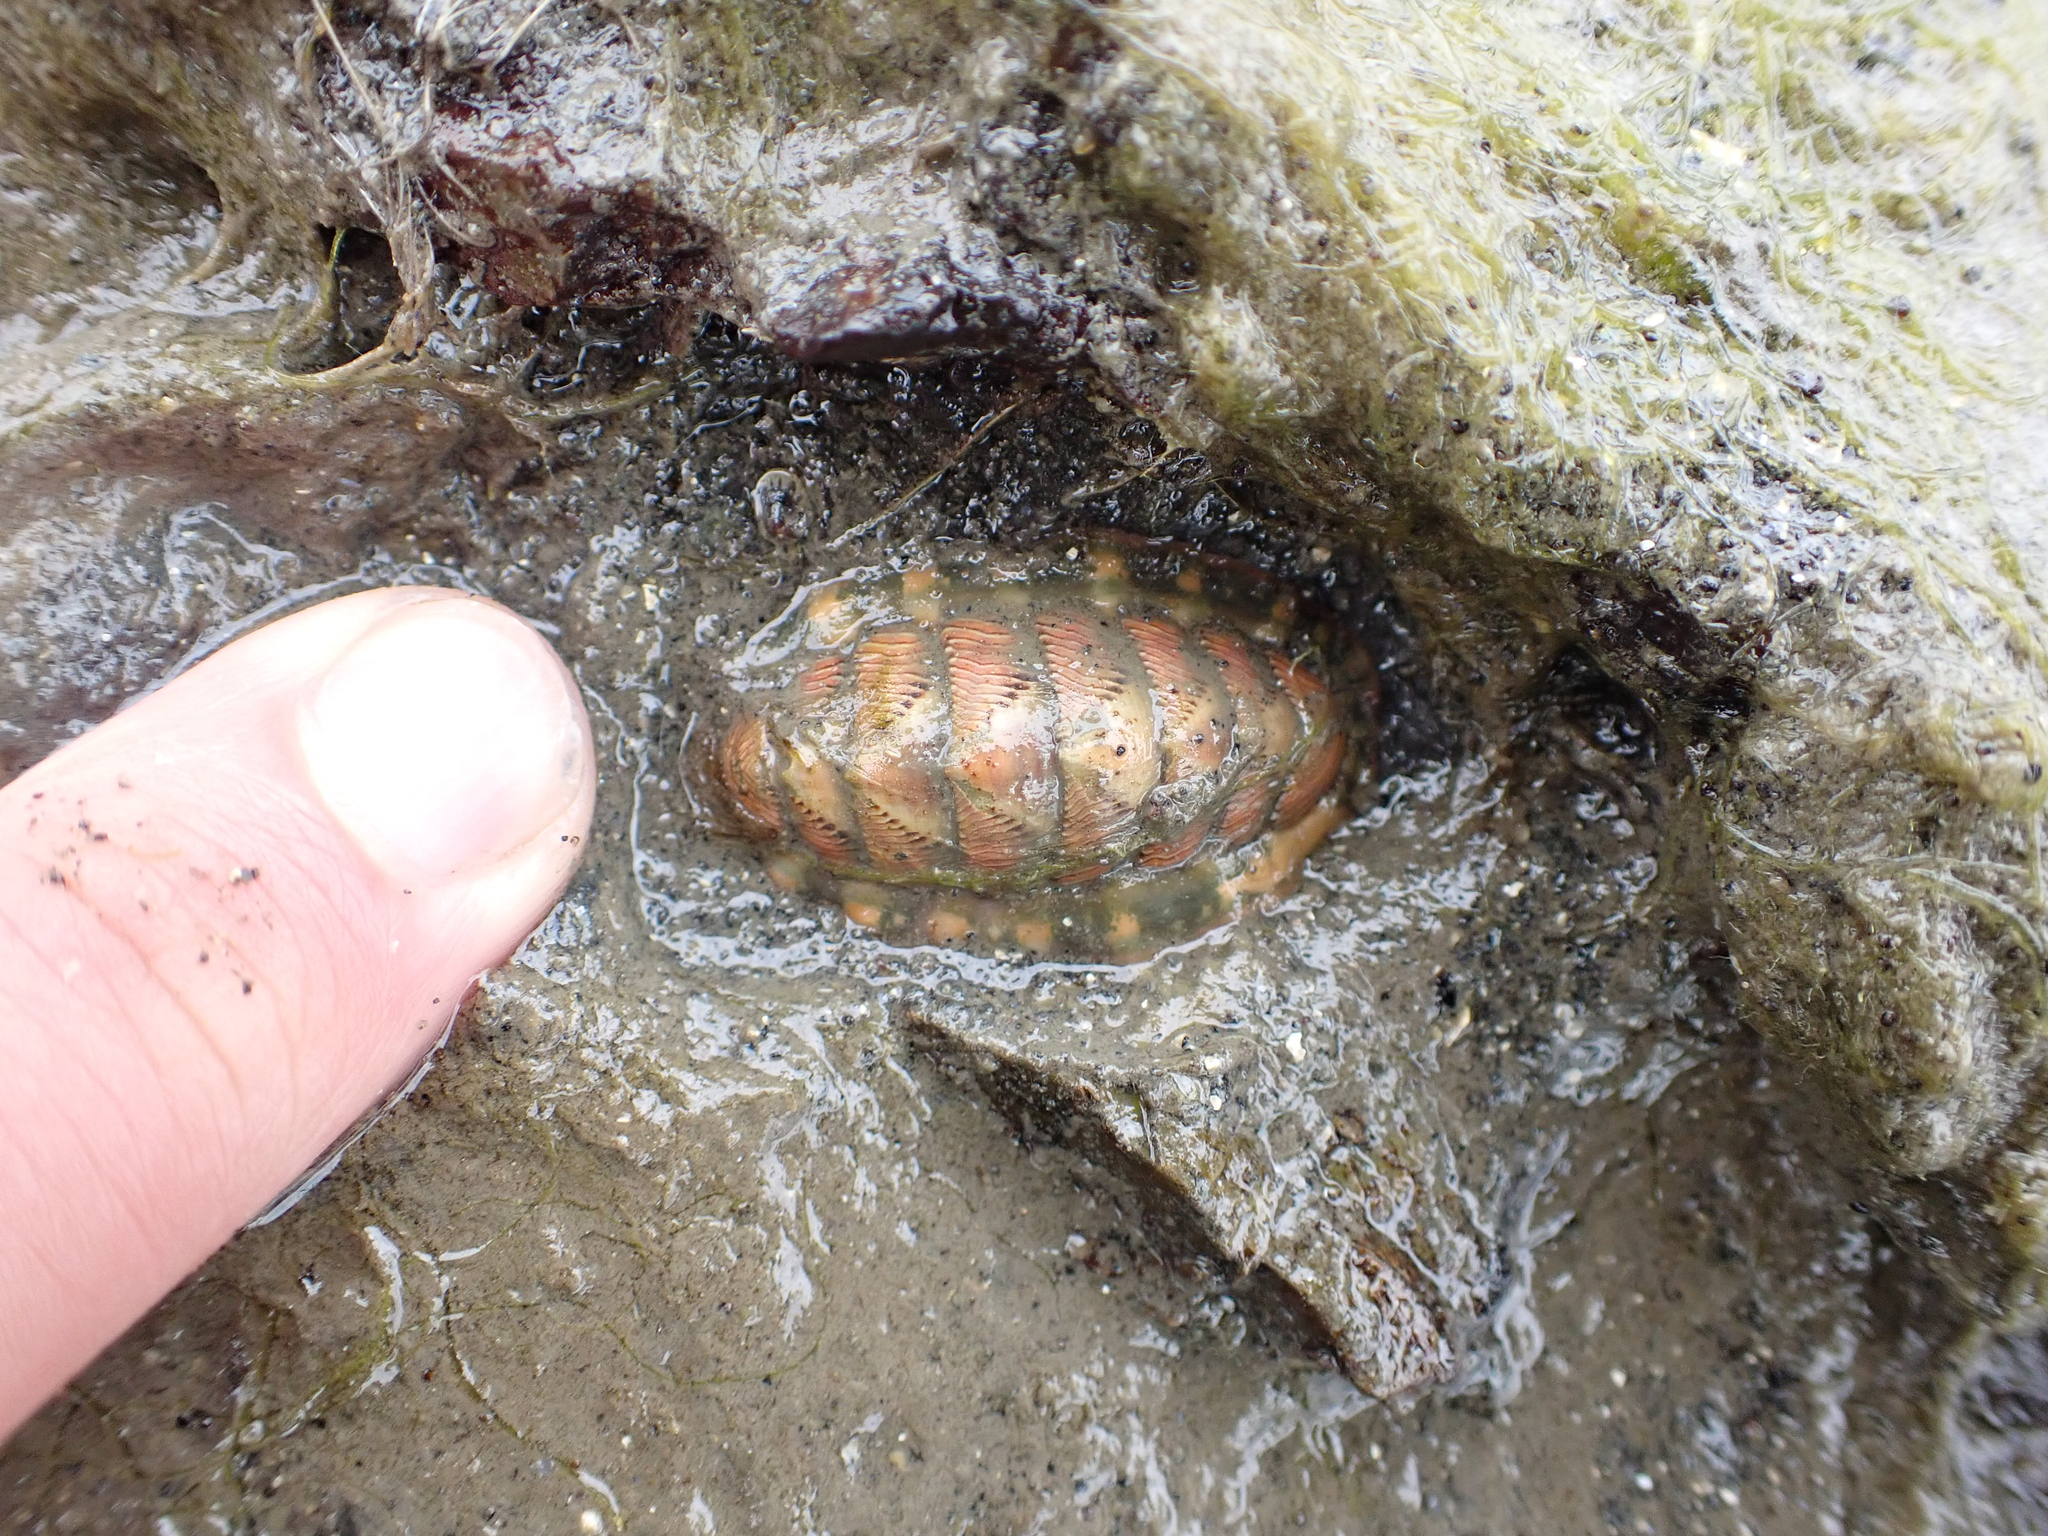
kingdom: Animalia
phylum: Mollusca
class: Polyplacophora
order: Chitonida
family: Tonicellidae
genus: Tonicella
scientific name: Tonicella lineata
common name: Lined chiton
